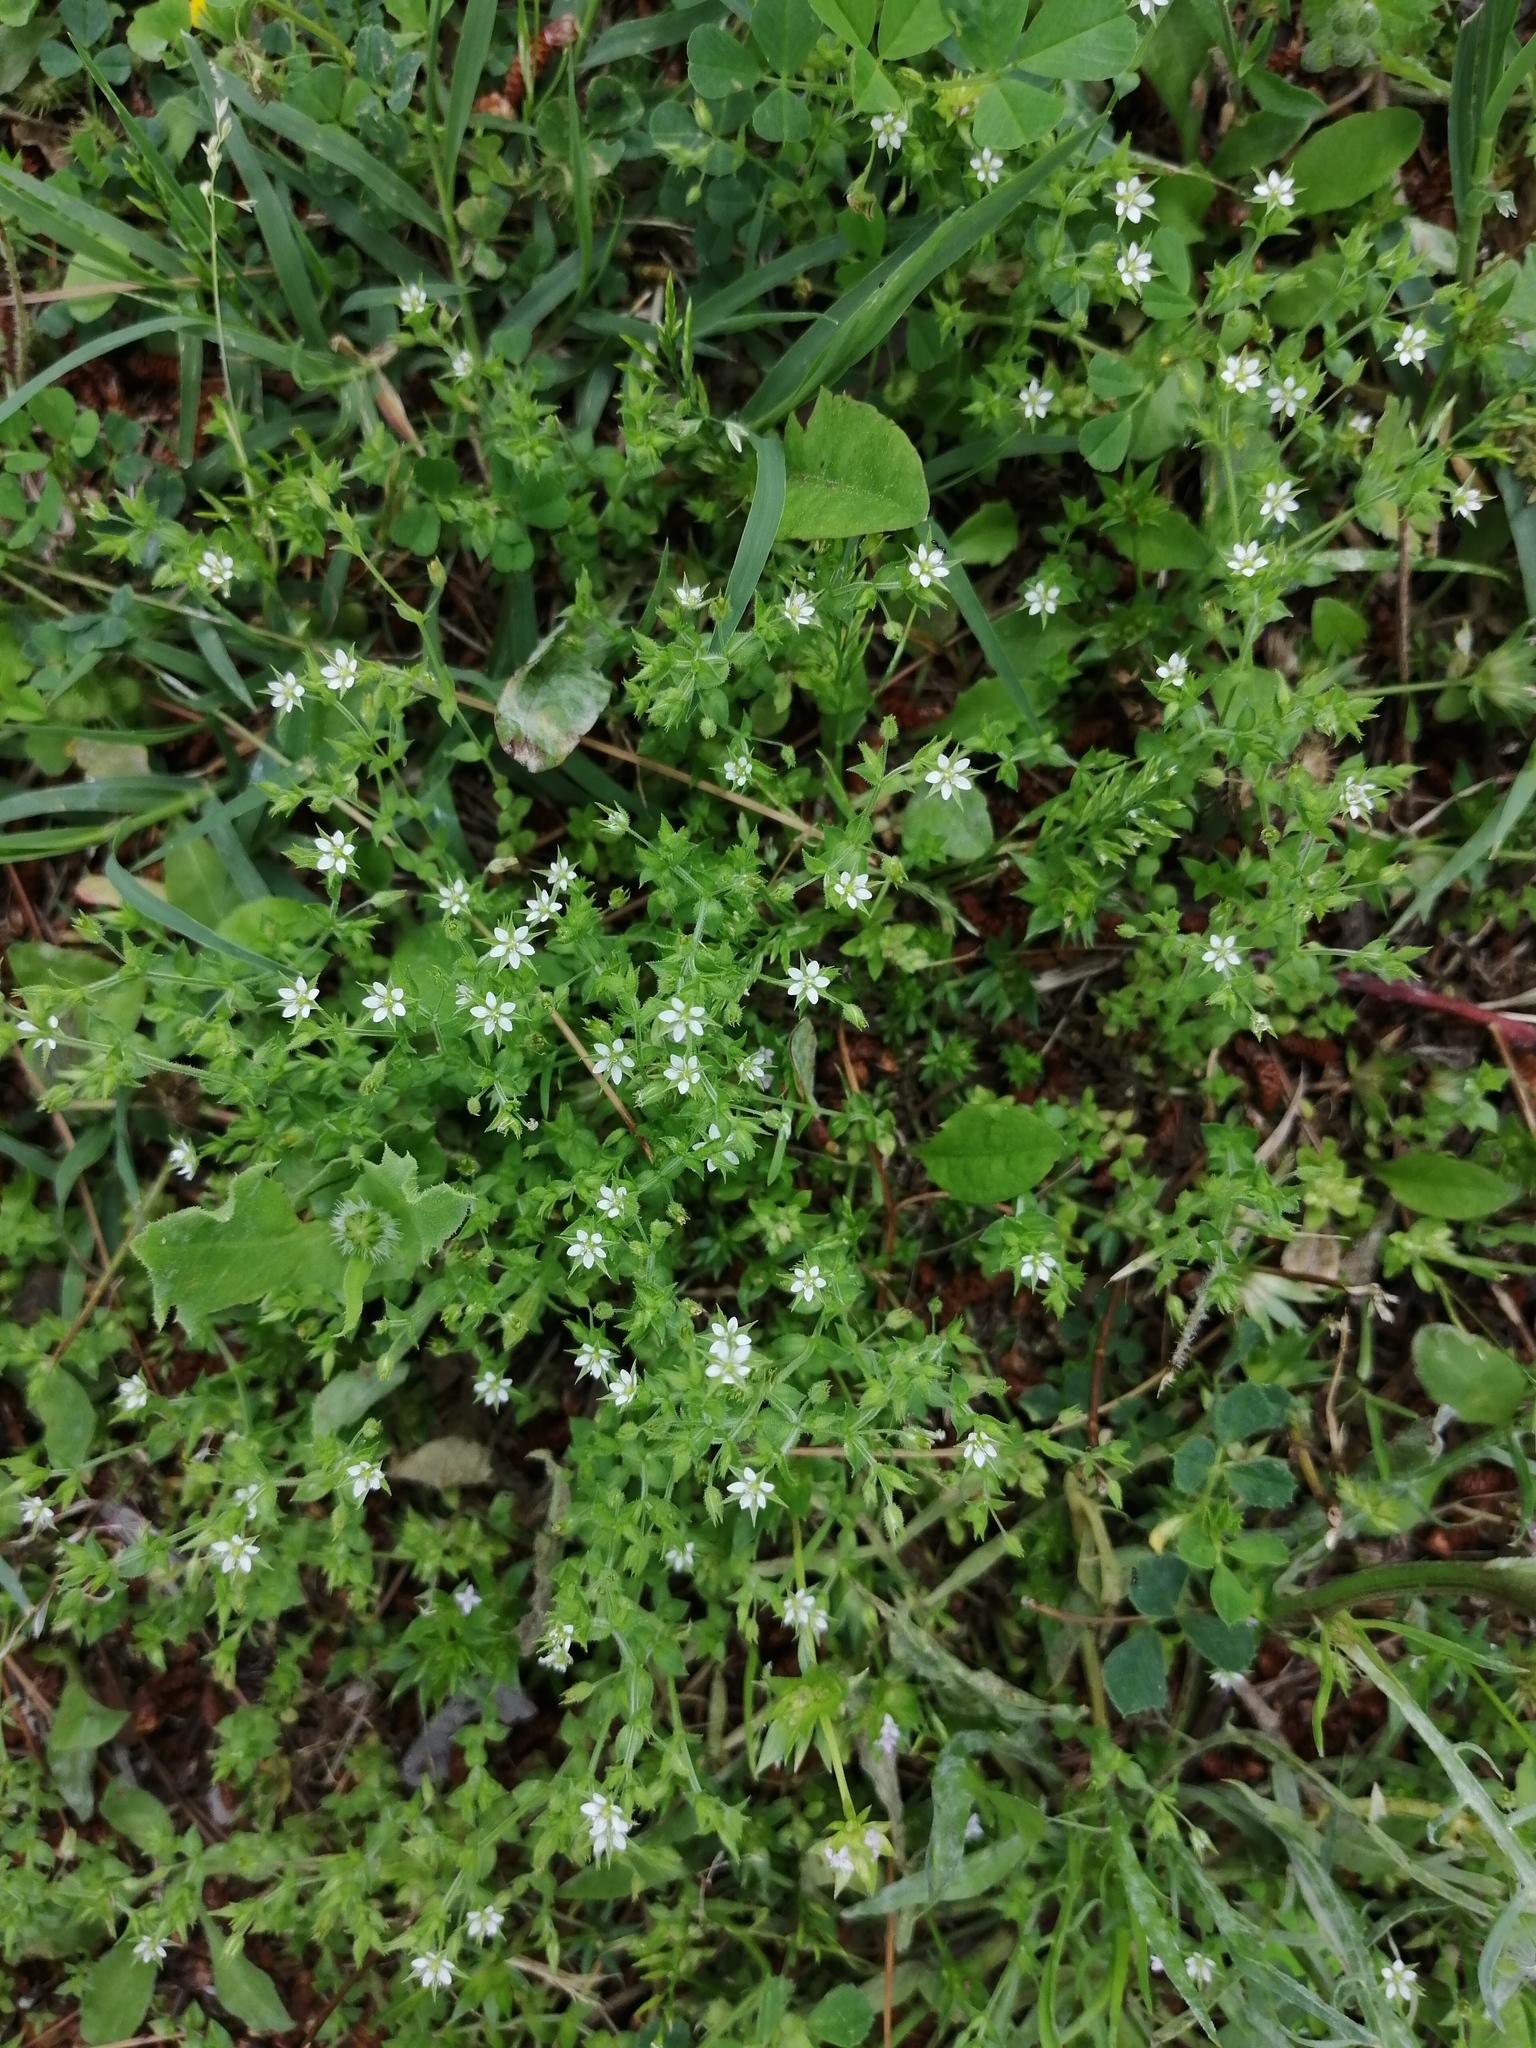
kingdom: Plantae
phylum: Tracheophyta
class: Magnoliopsida
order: Caryophyllales
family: Caryophyllaceae
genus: Arenaria
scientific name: Arenaria serpyllifolia
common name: Thyme-leaved sandwort
